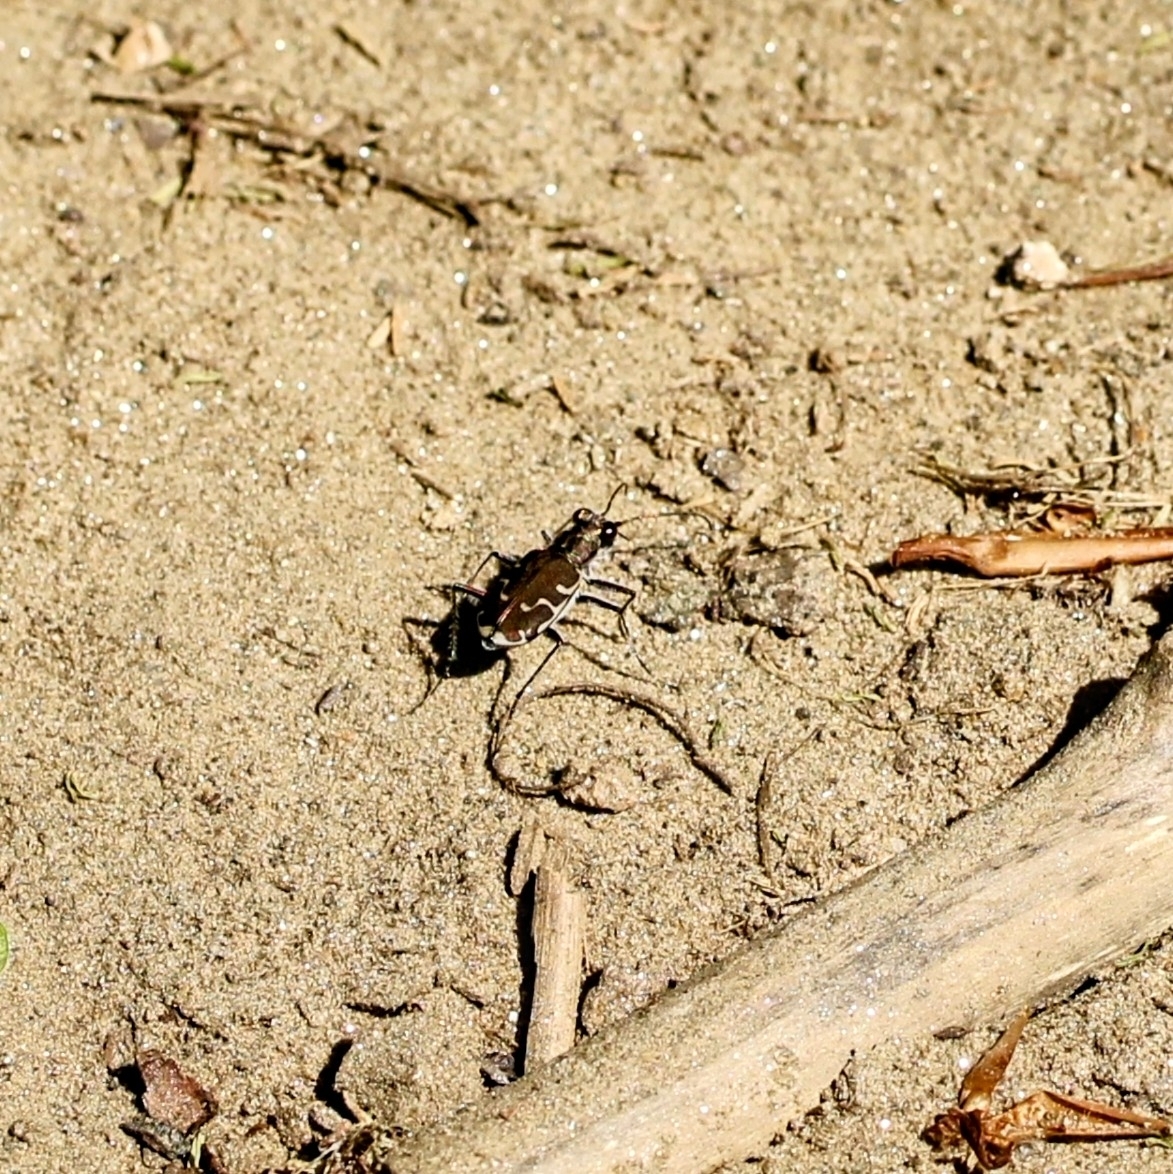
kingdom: Animalia
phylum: Arthropoda
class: Insecta
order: Coleoptera
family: Carabidae
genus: Cicindela
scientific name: Cicindela repanda
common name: Bronzed tiger beetle
